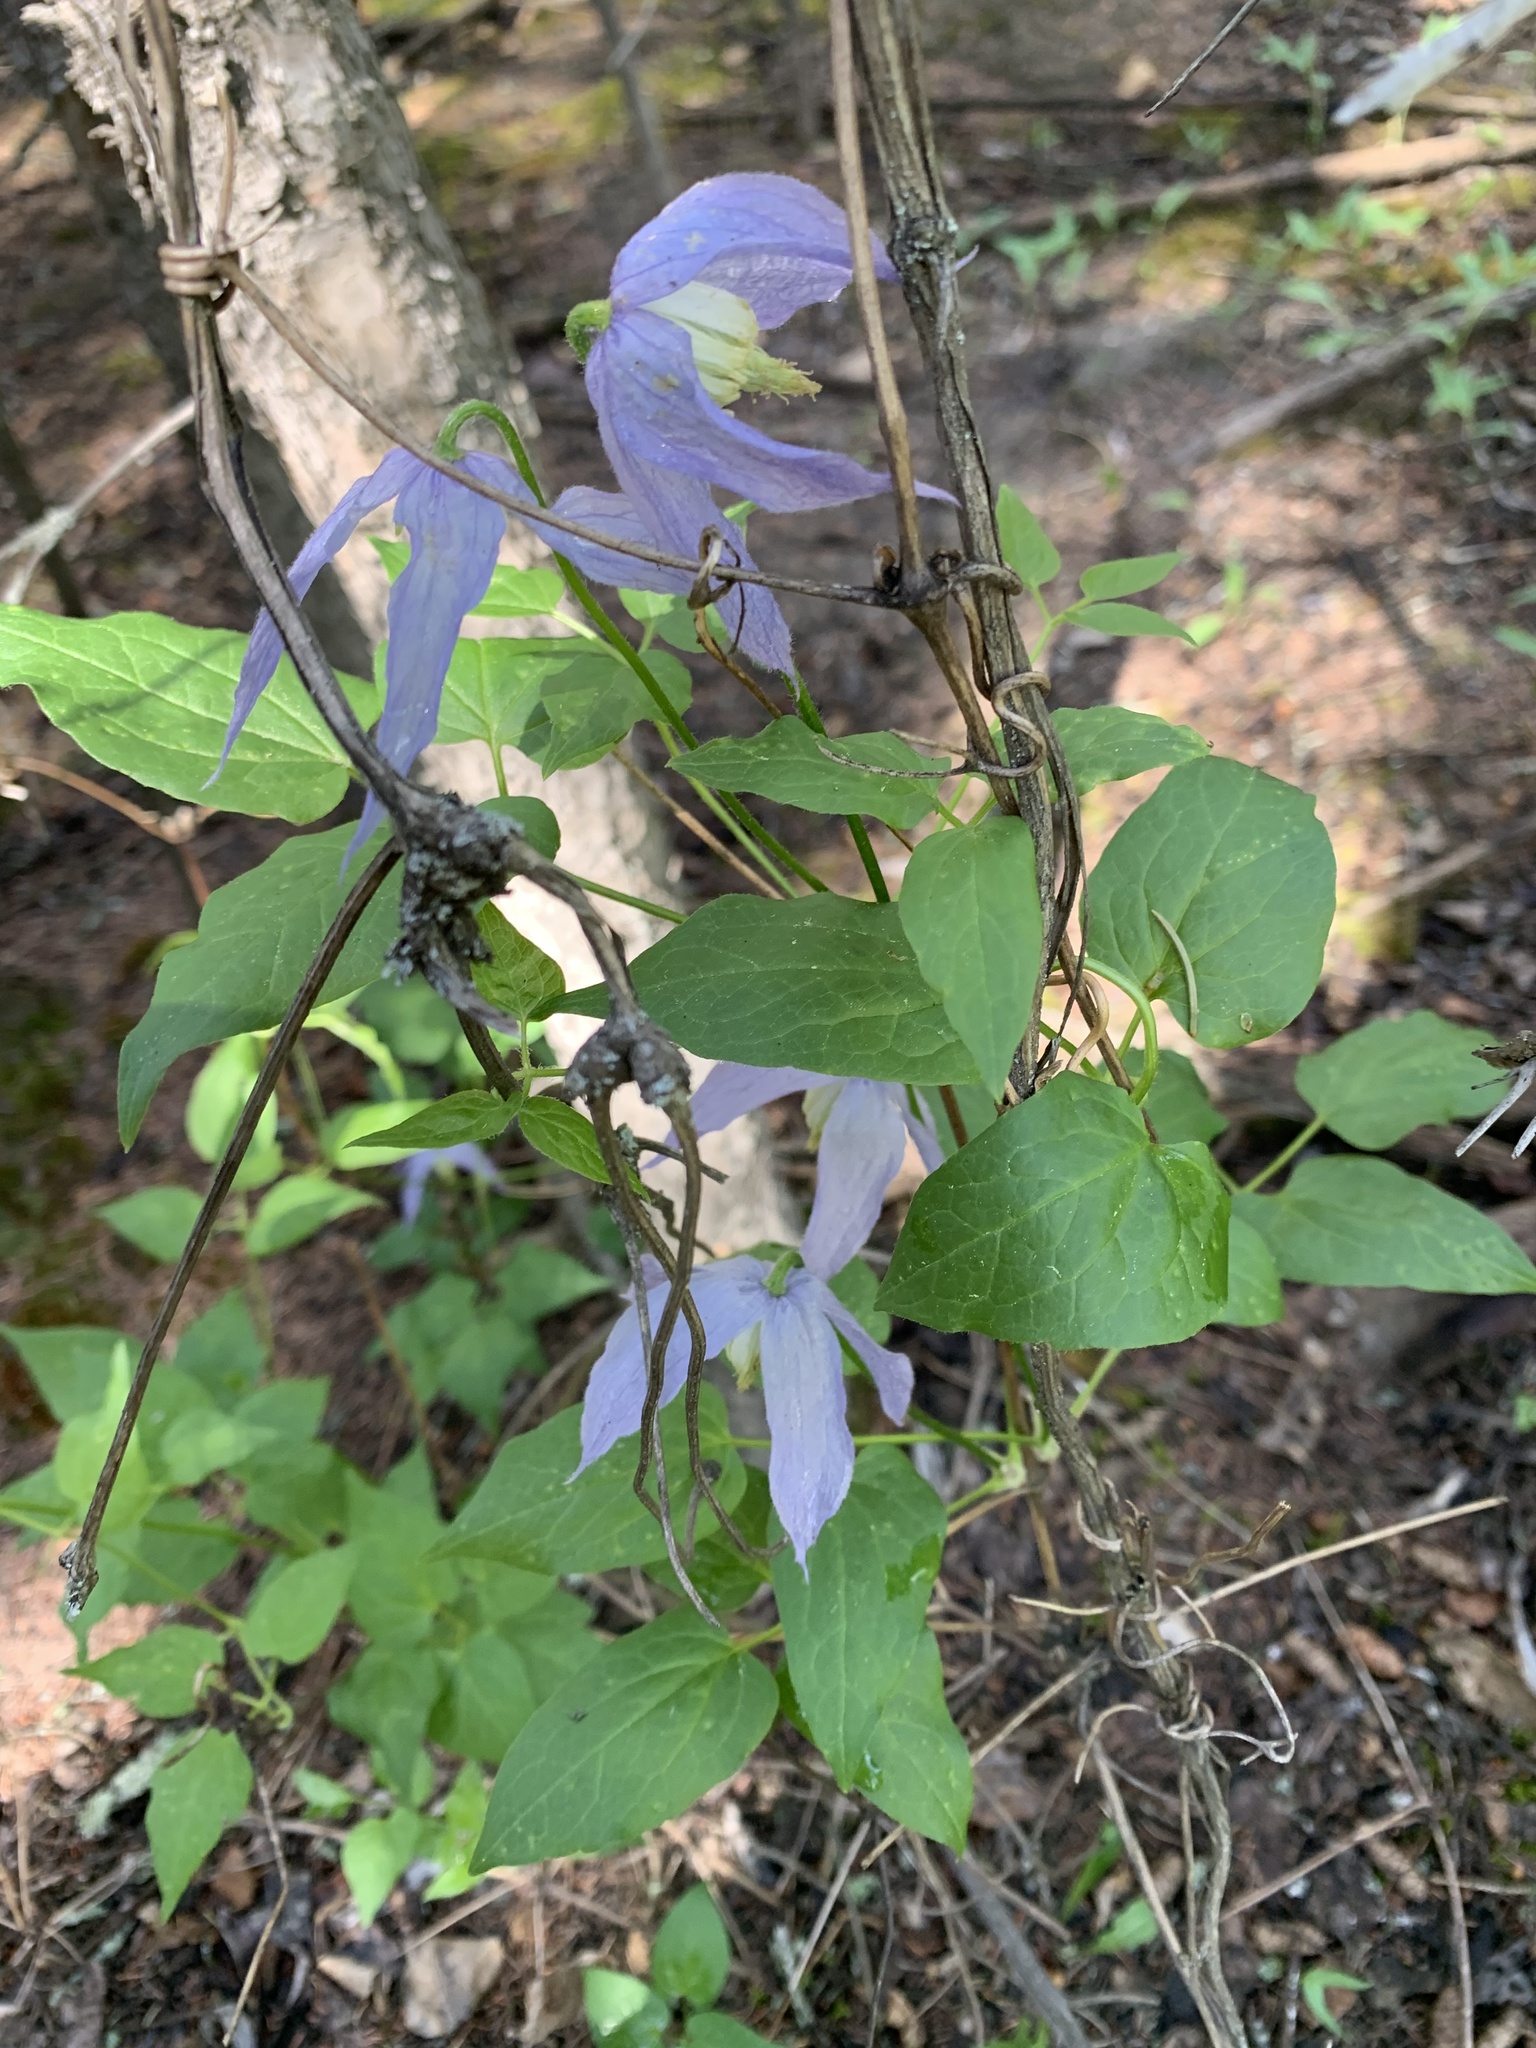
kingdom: Plantae
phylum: Tracheophyta
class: Magnoliopsida
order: Ranunculales
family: Ranunculaceae
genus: Clematis
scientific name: Clematis occidentalis
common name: Purple clematis
